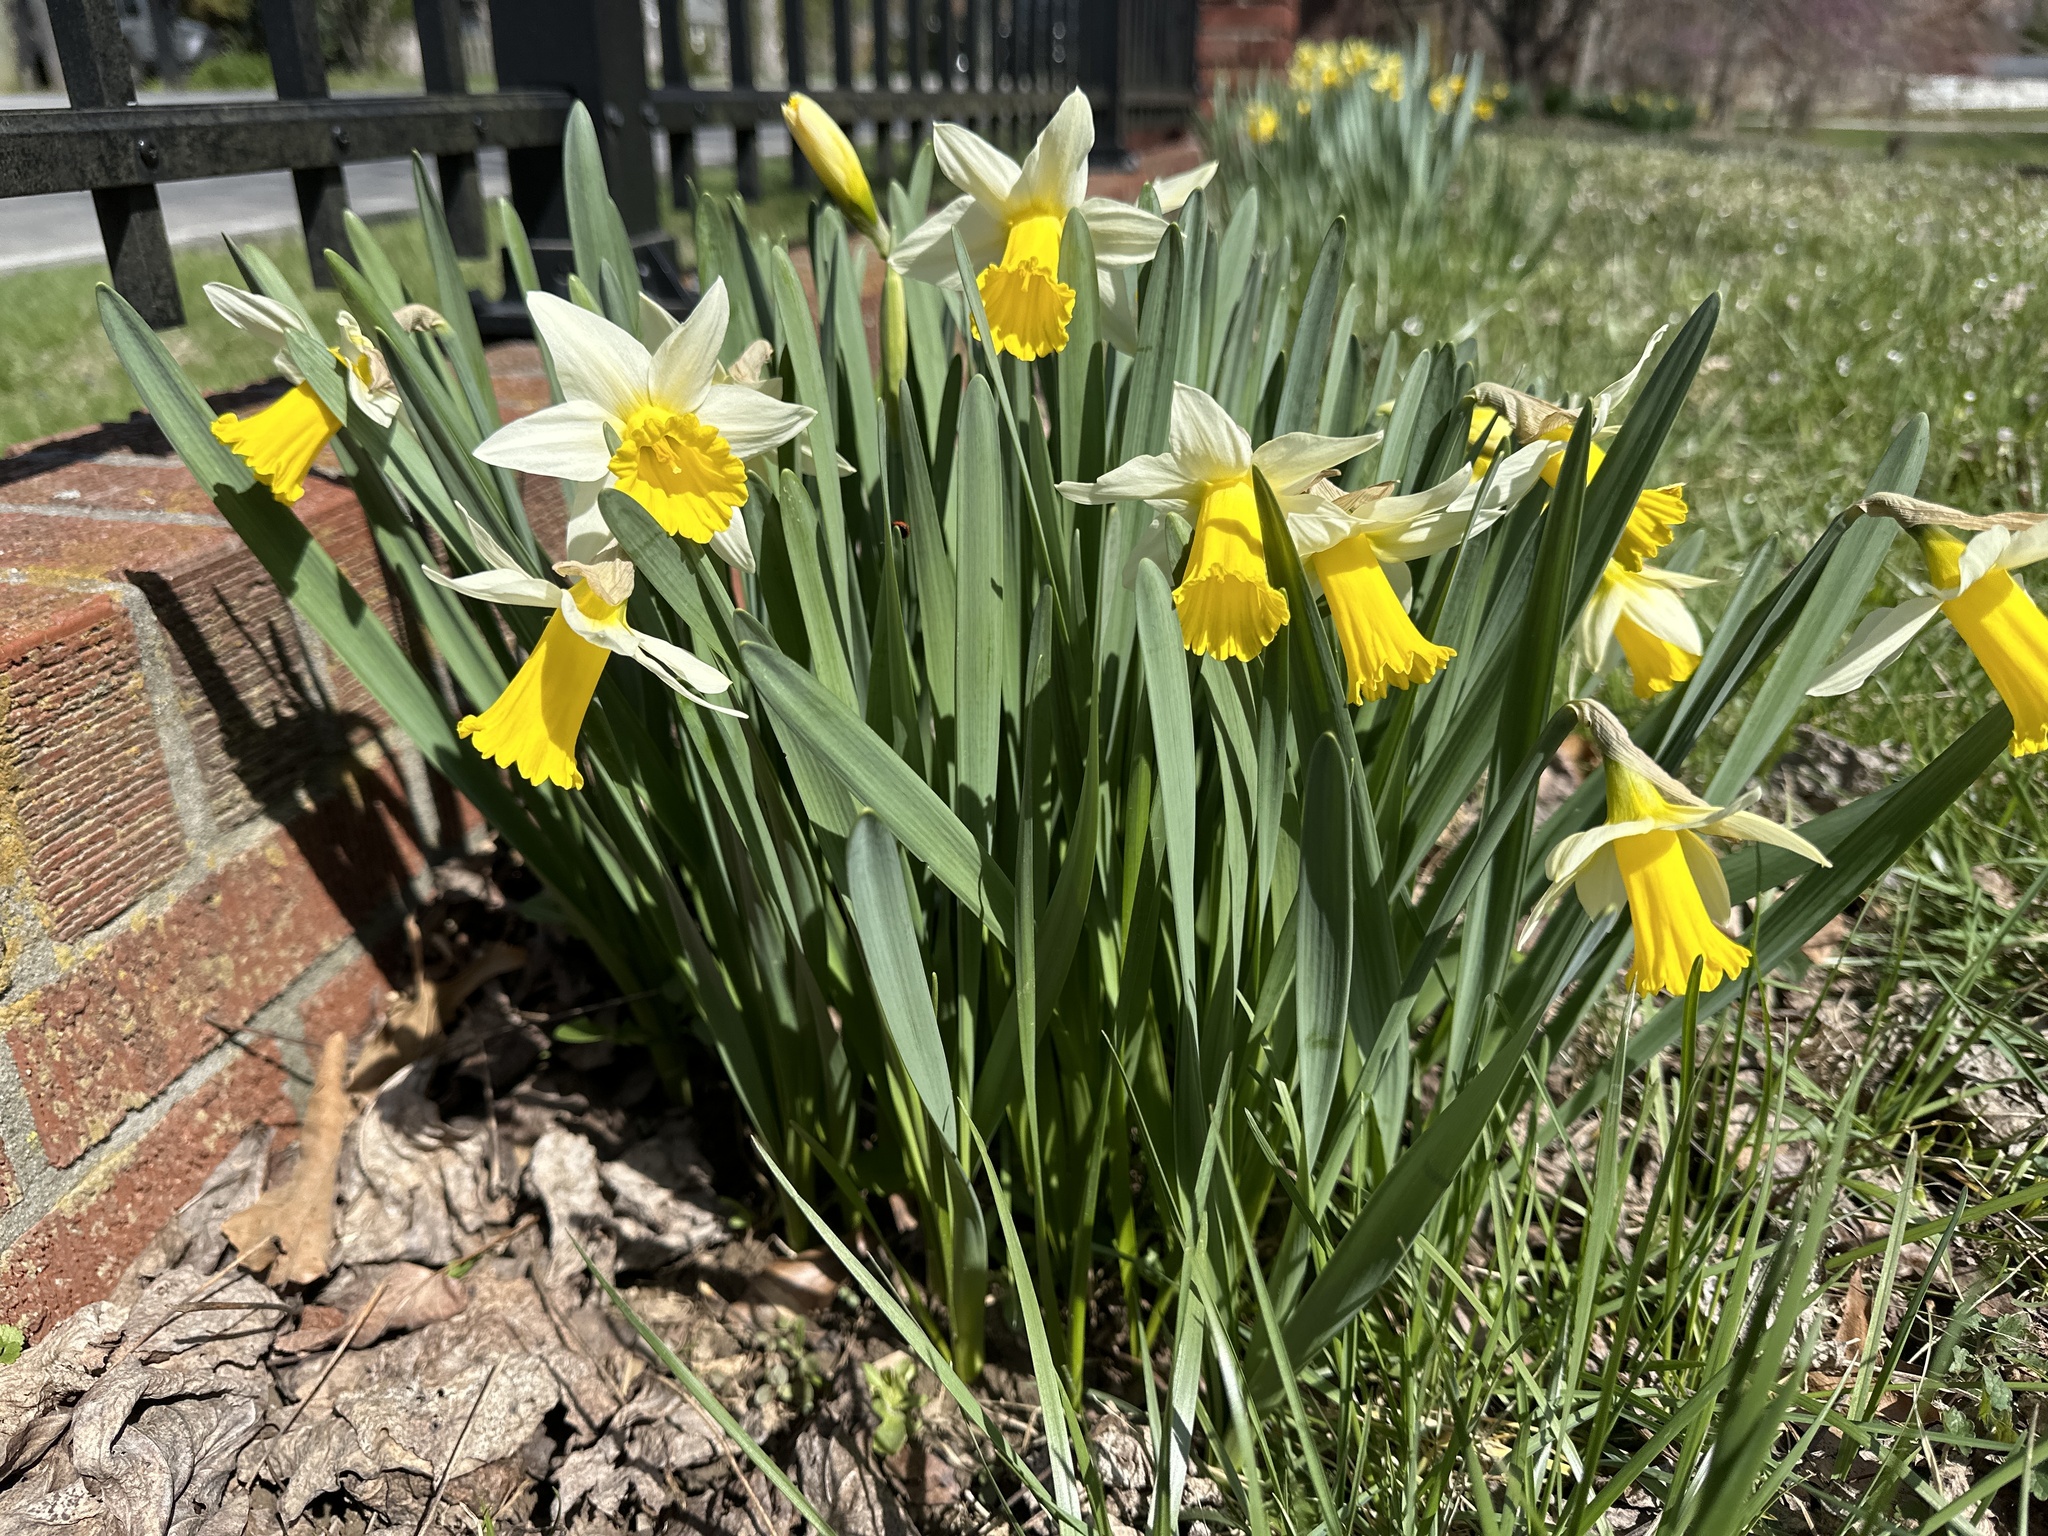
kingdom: Plantae
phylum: Tracheophyta
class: Liliopsida
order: Asparagales
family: Amaryllidaceae
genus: Narcissus
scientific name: Narcissus pseudonarcissus
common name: Daffodil
